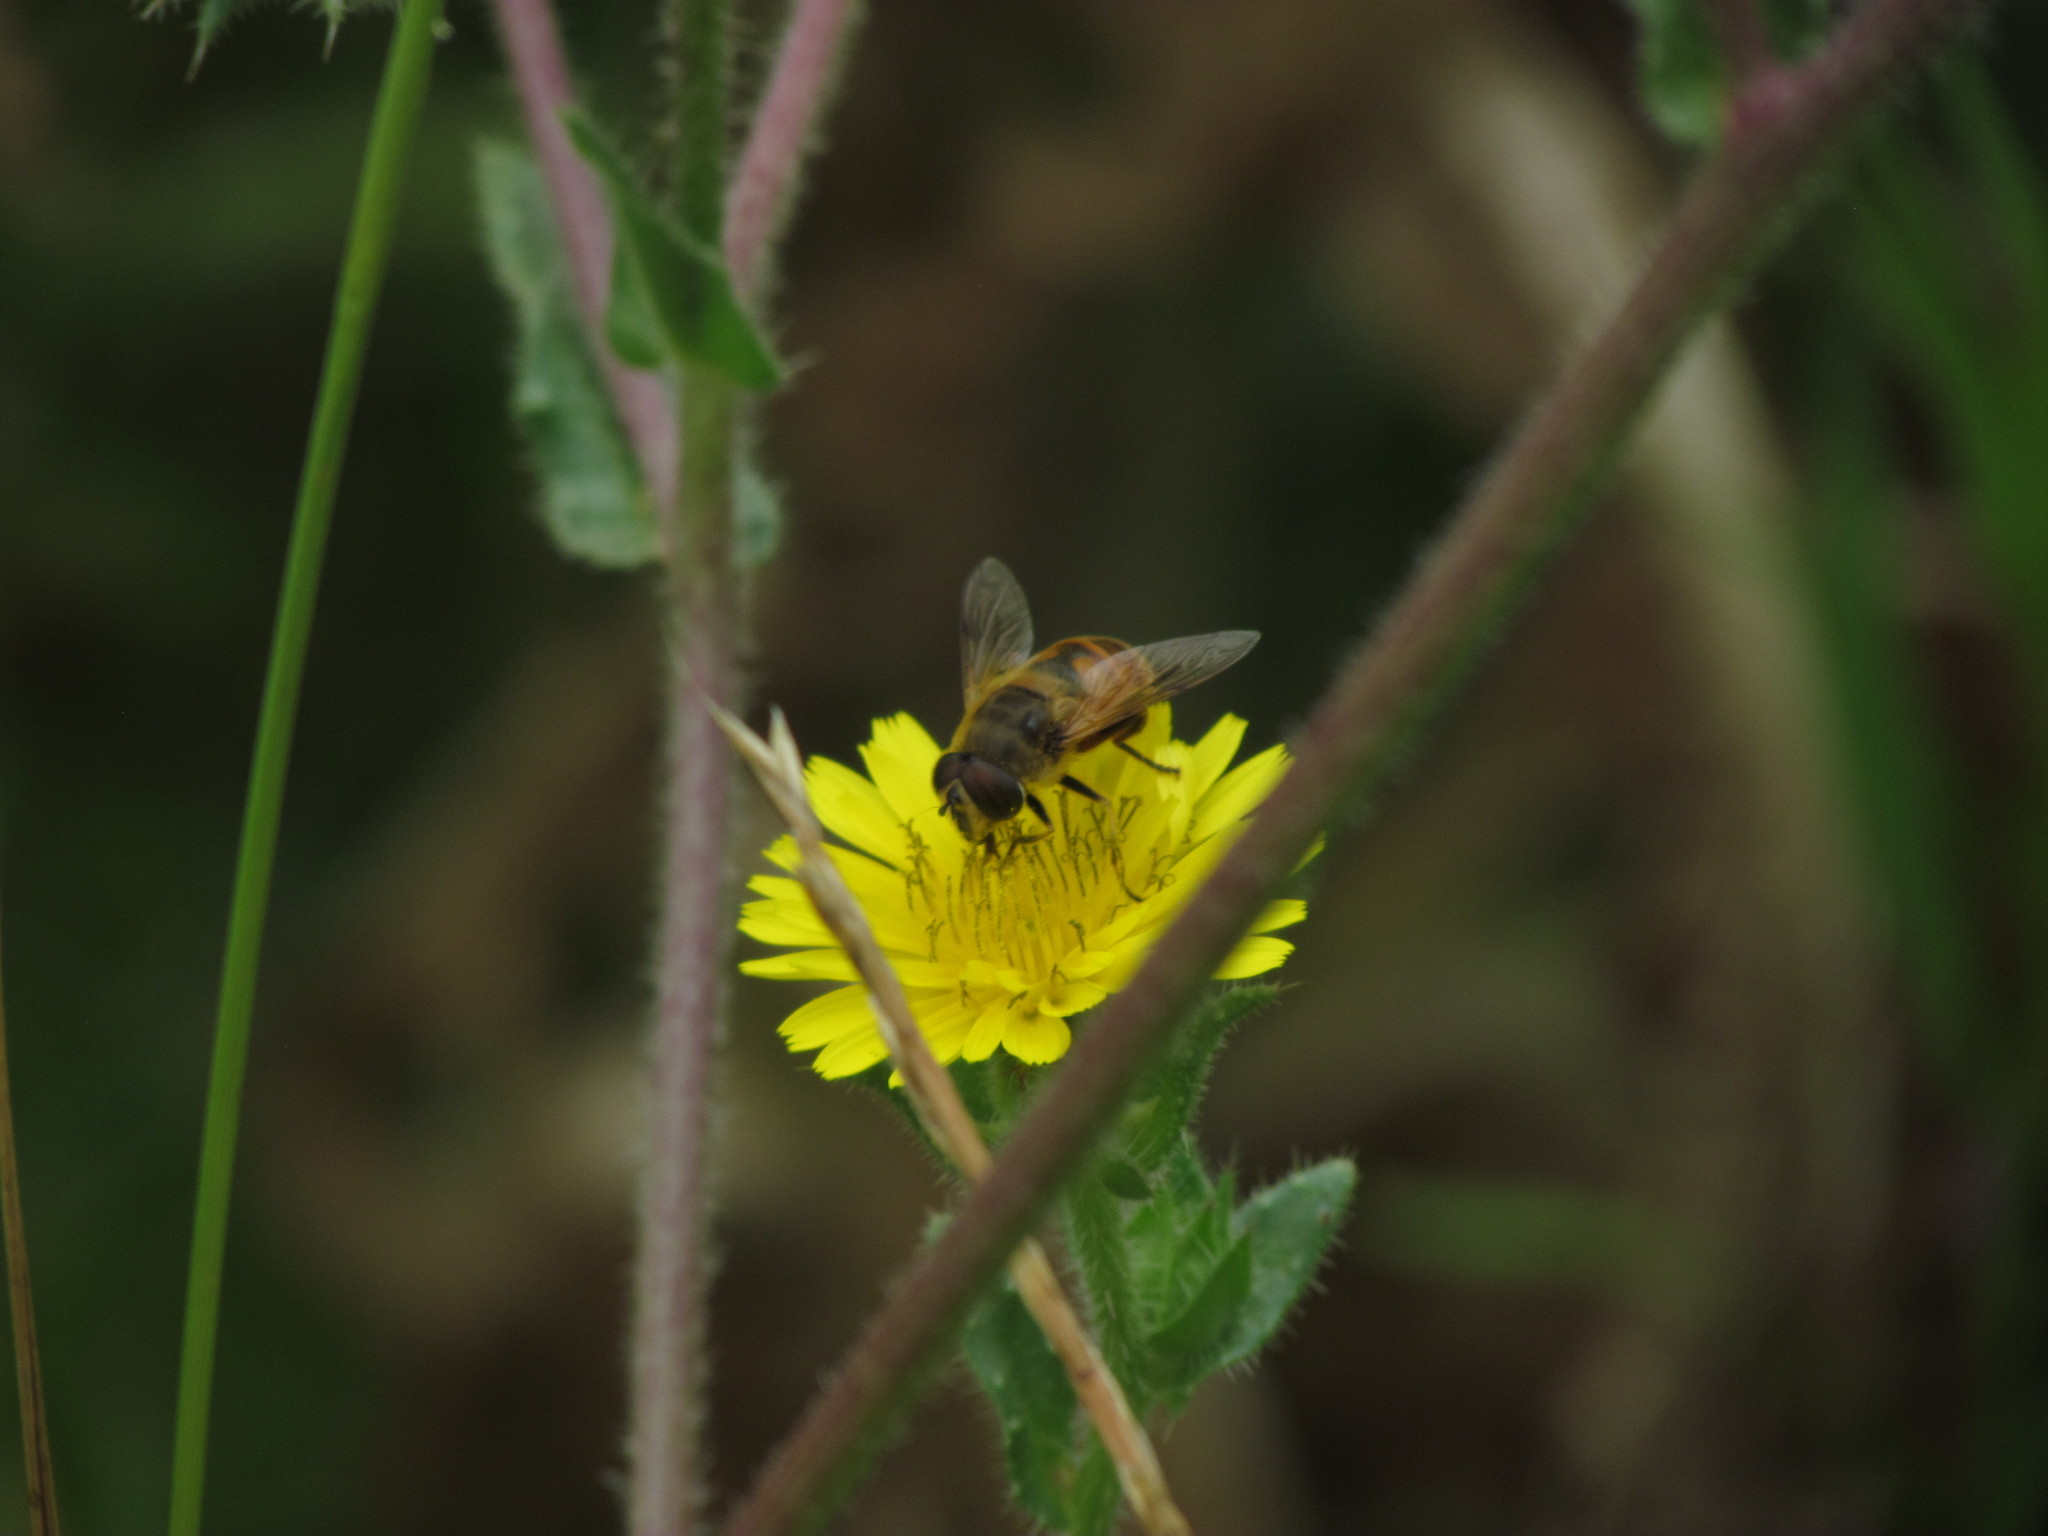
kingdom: Animalia
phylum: Arthropoda
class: Insecta
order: Diptera
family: Syrphidae
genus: Eristalis
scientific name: Eristalis tenax
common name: Drone fly
